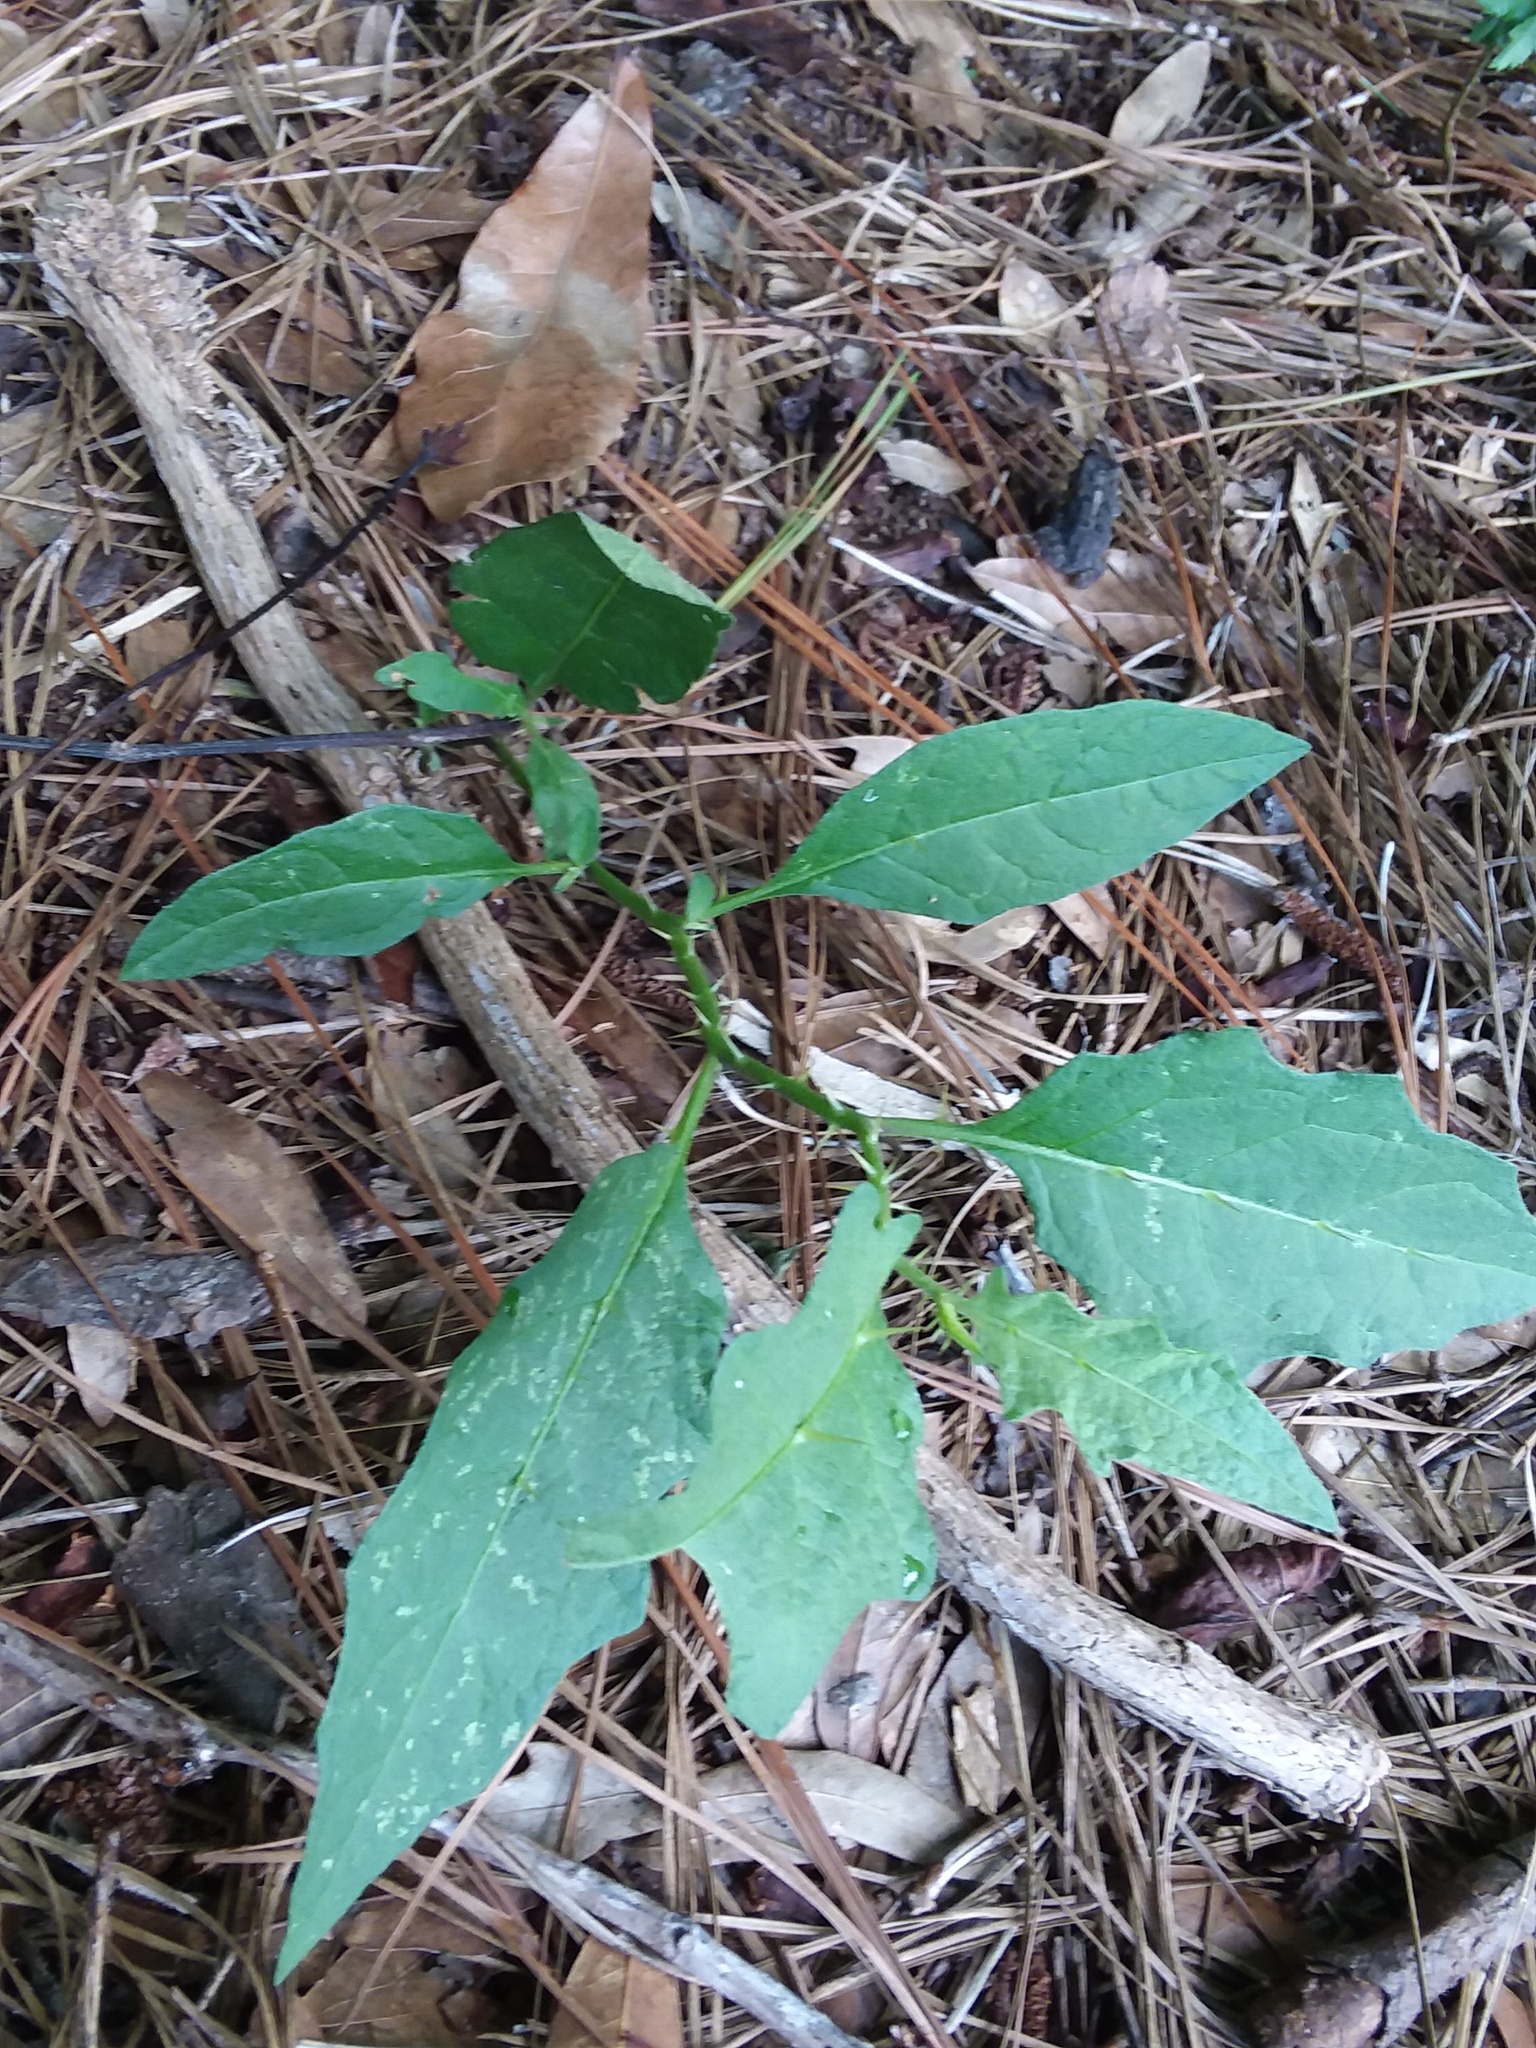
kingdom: Plantae
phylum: Tracheophyta
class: Magnoliopsida
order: Solanales
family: Solanaceae
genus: Solanum
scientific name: Solanum carolinense
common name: Horse-nettle
